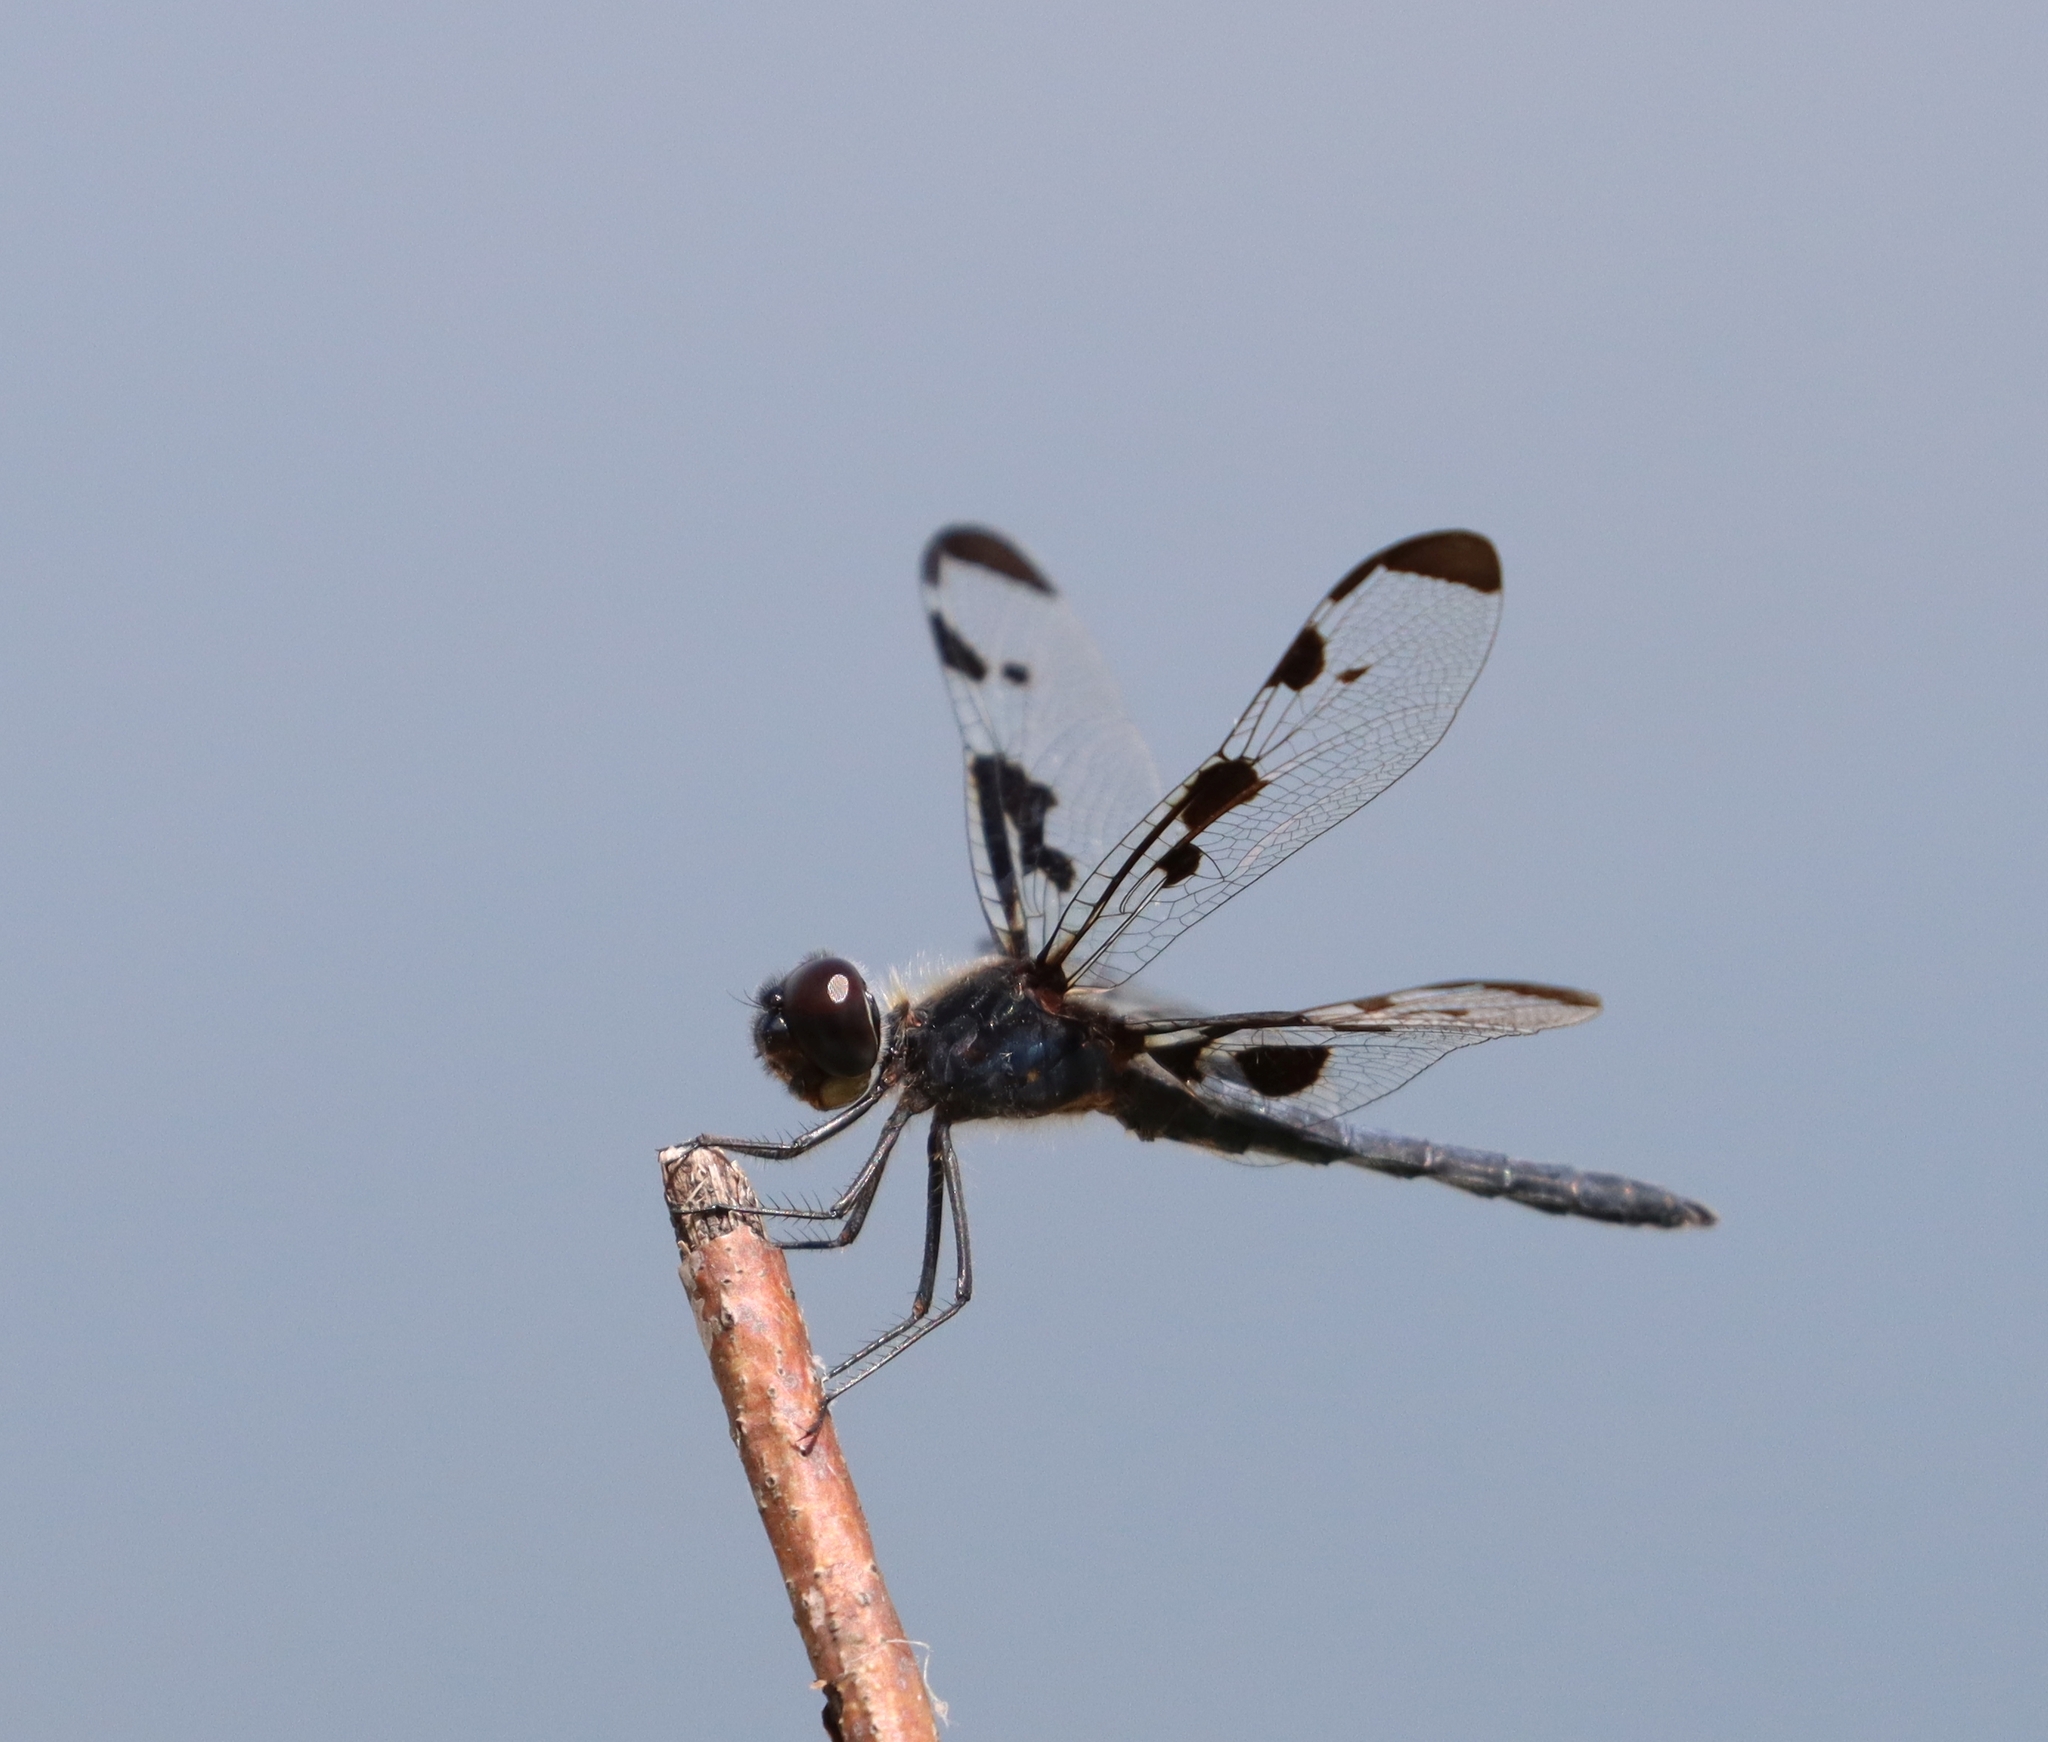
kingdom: Animalia
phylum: Arthropoda
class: Insecta
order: Odonata
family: Libellulidae
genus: Celithemis
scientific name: Celithemis fasciata
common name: Banded pennant
